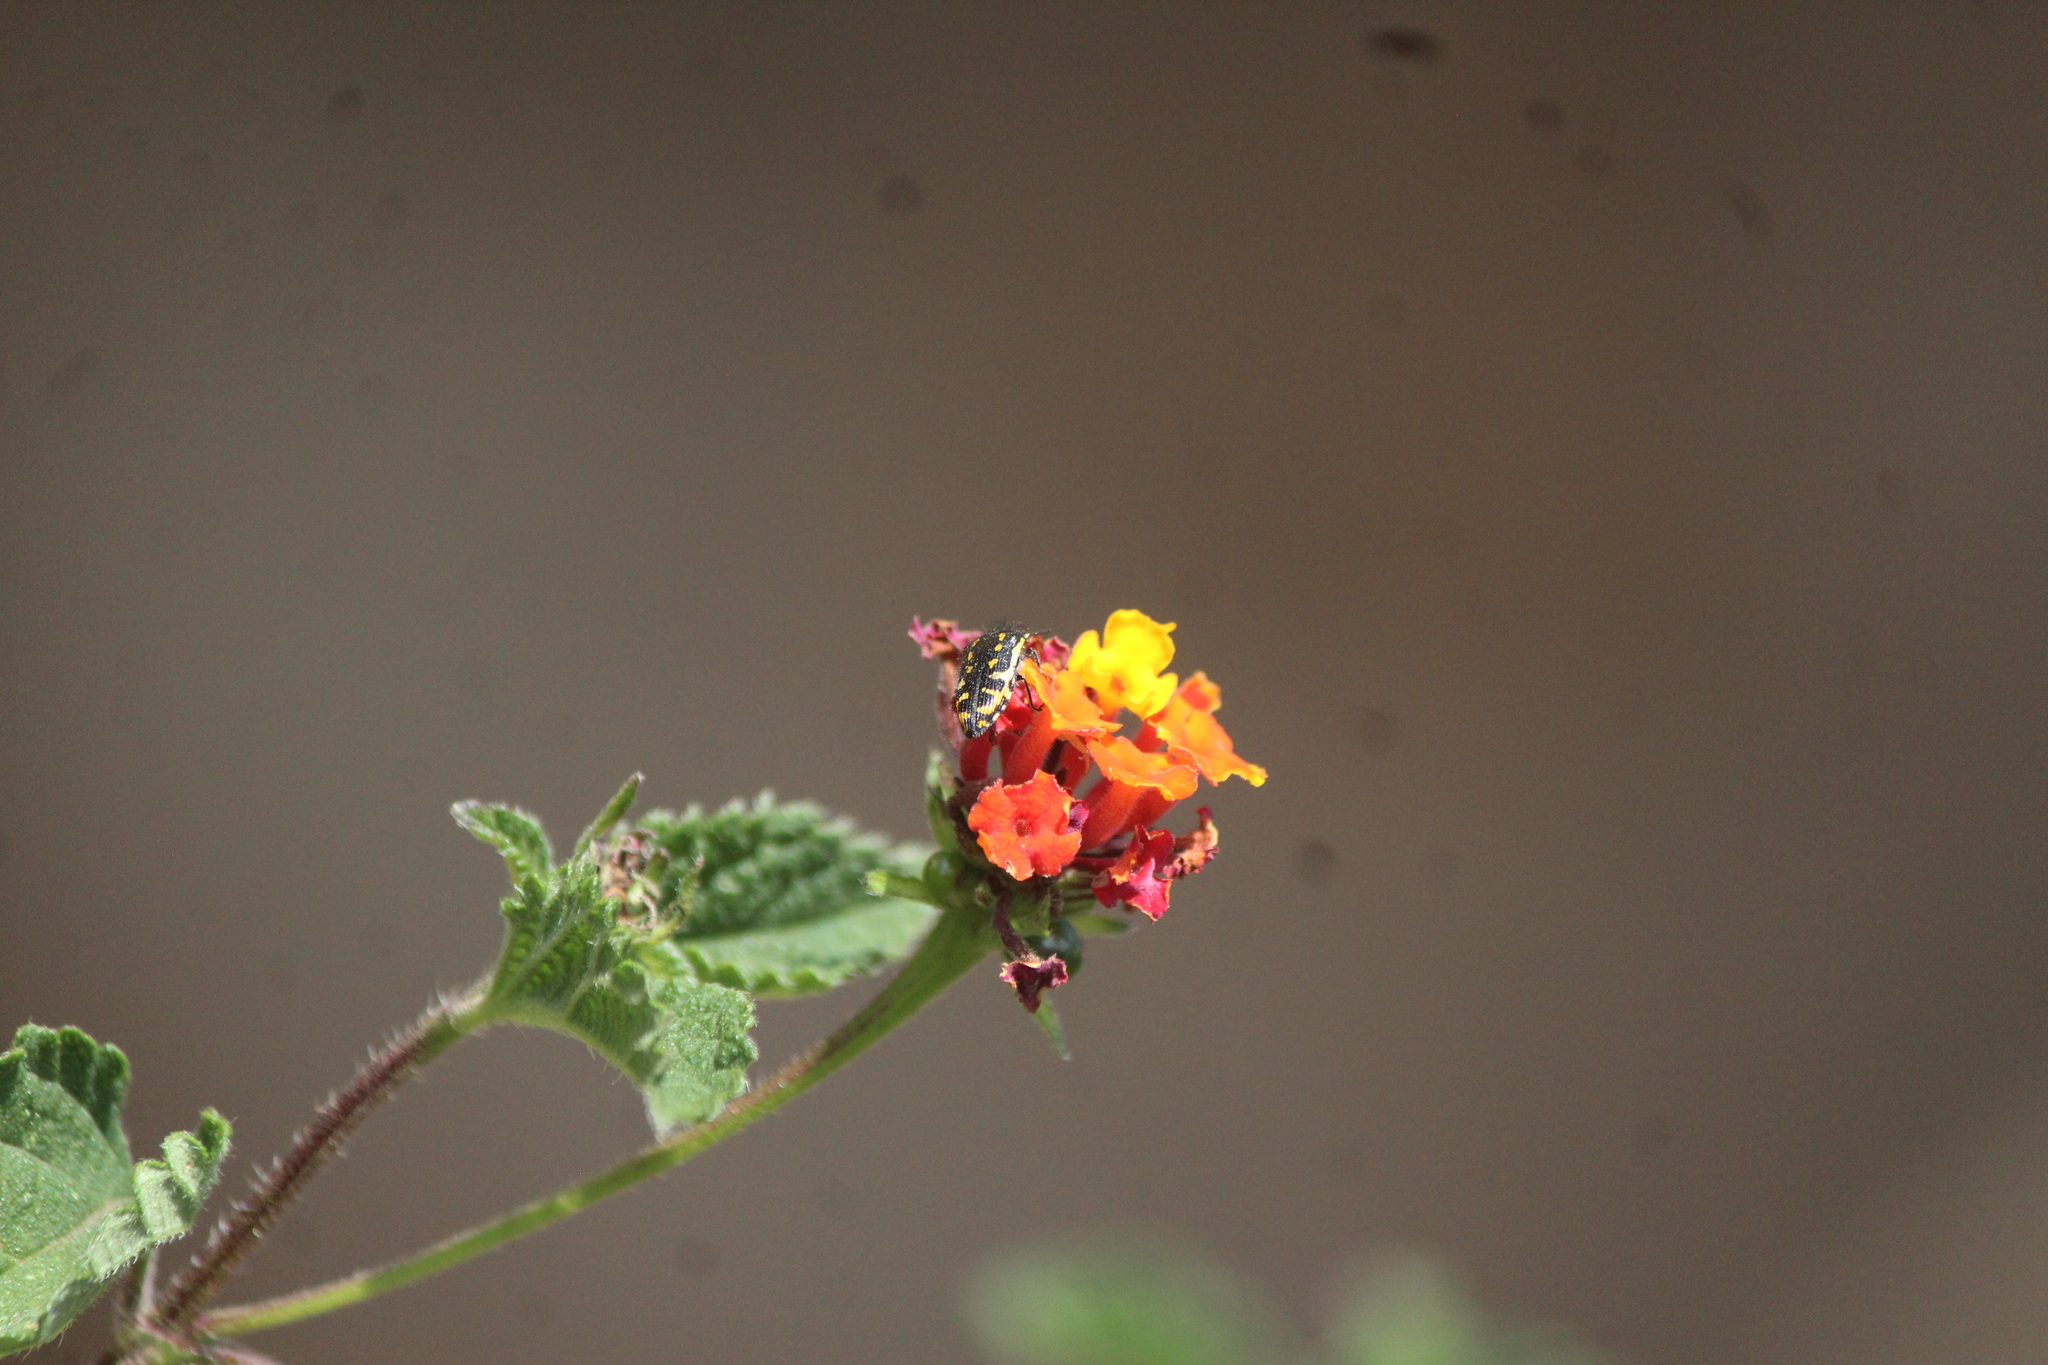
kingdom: Animalia
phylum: Arthropoda
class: Insecta
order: Coleoptera
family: Buprestidae
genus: Acmaeodera
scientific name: Acmaeodera scalaris
